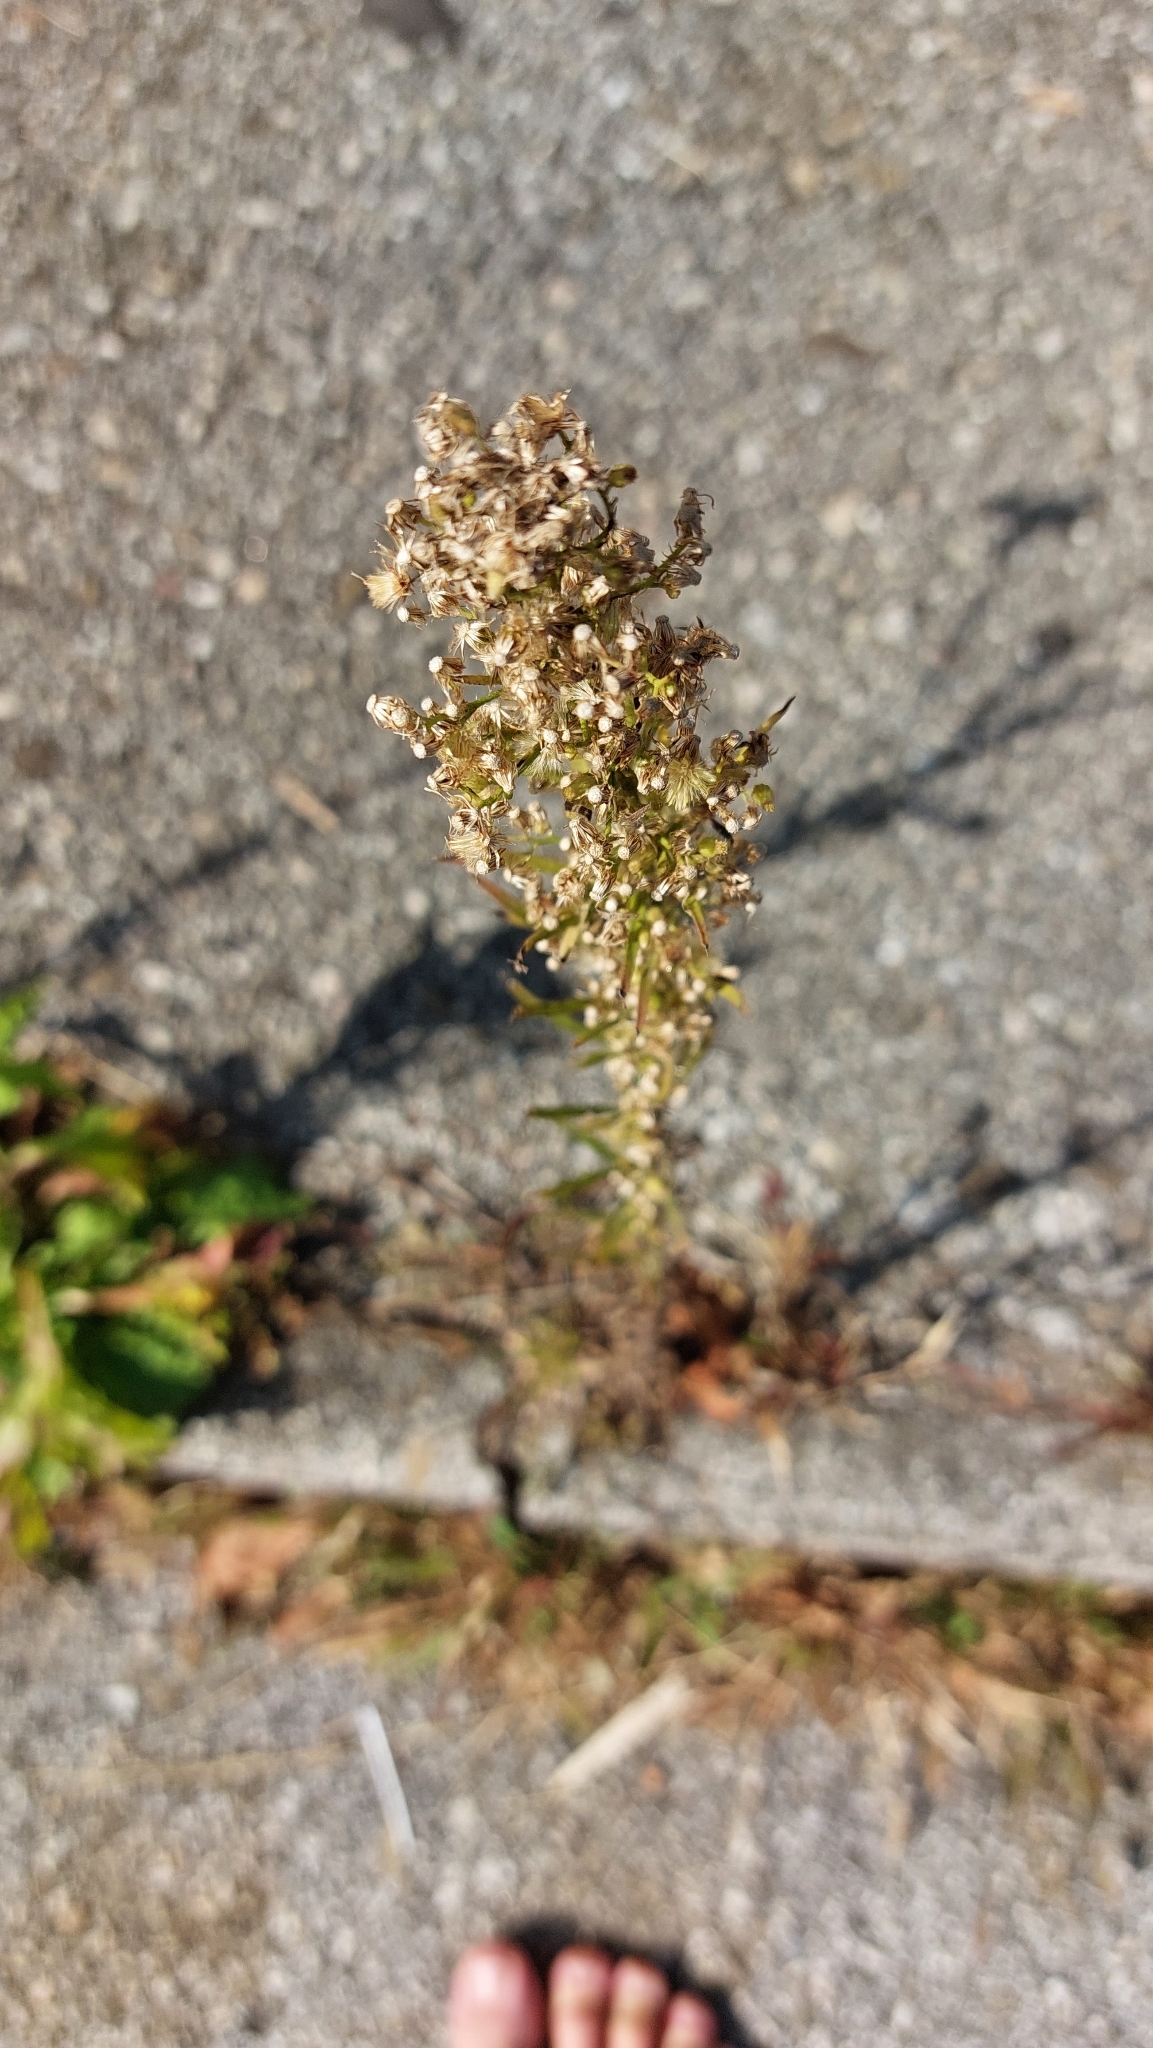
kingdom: Plantae
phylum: Tracheophyta
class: Magnoliopsida
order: Asterales
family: Asteraceae
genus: Erigeron
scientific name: Erigeron canadensis
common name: Canadian fleabane
